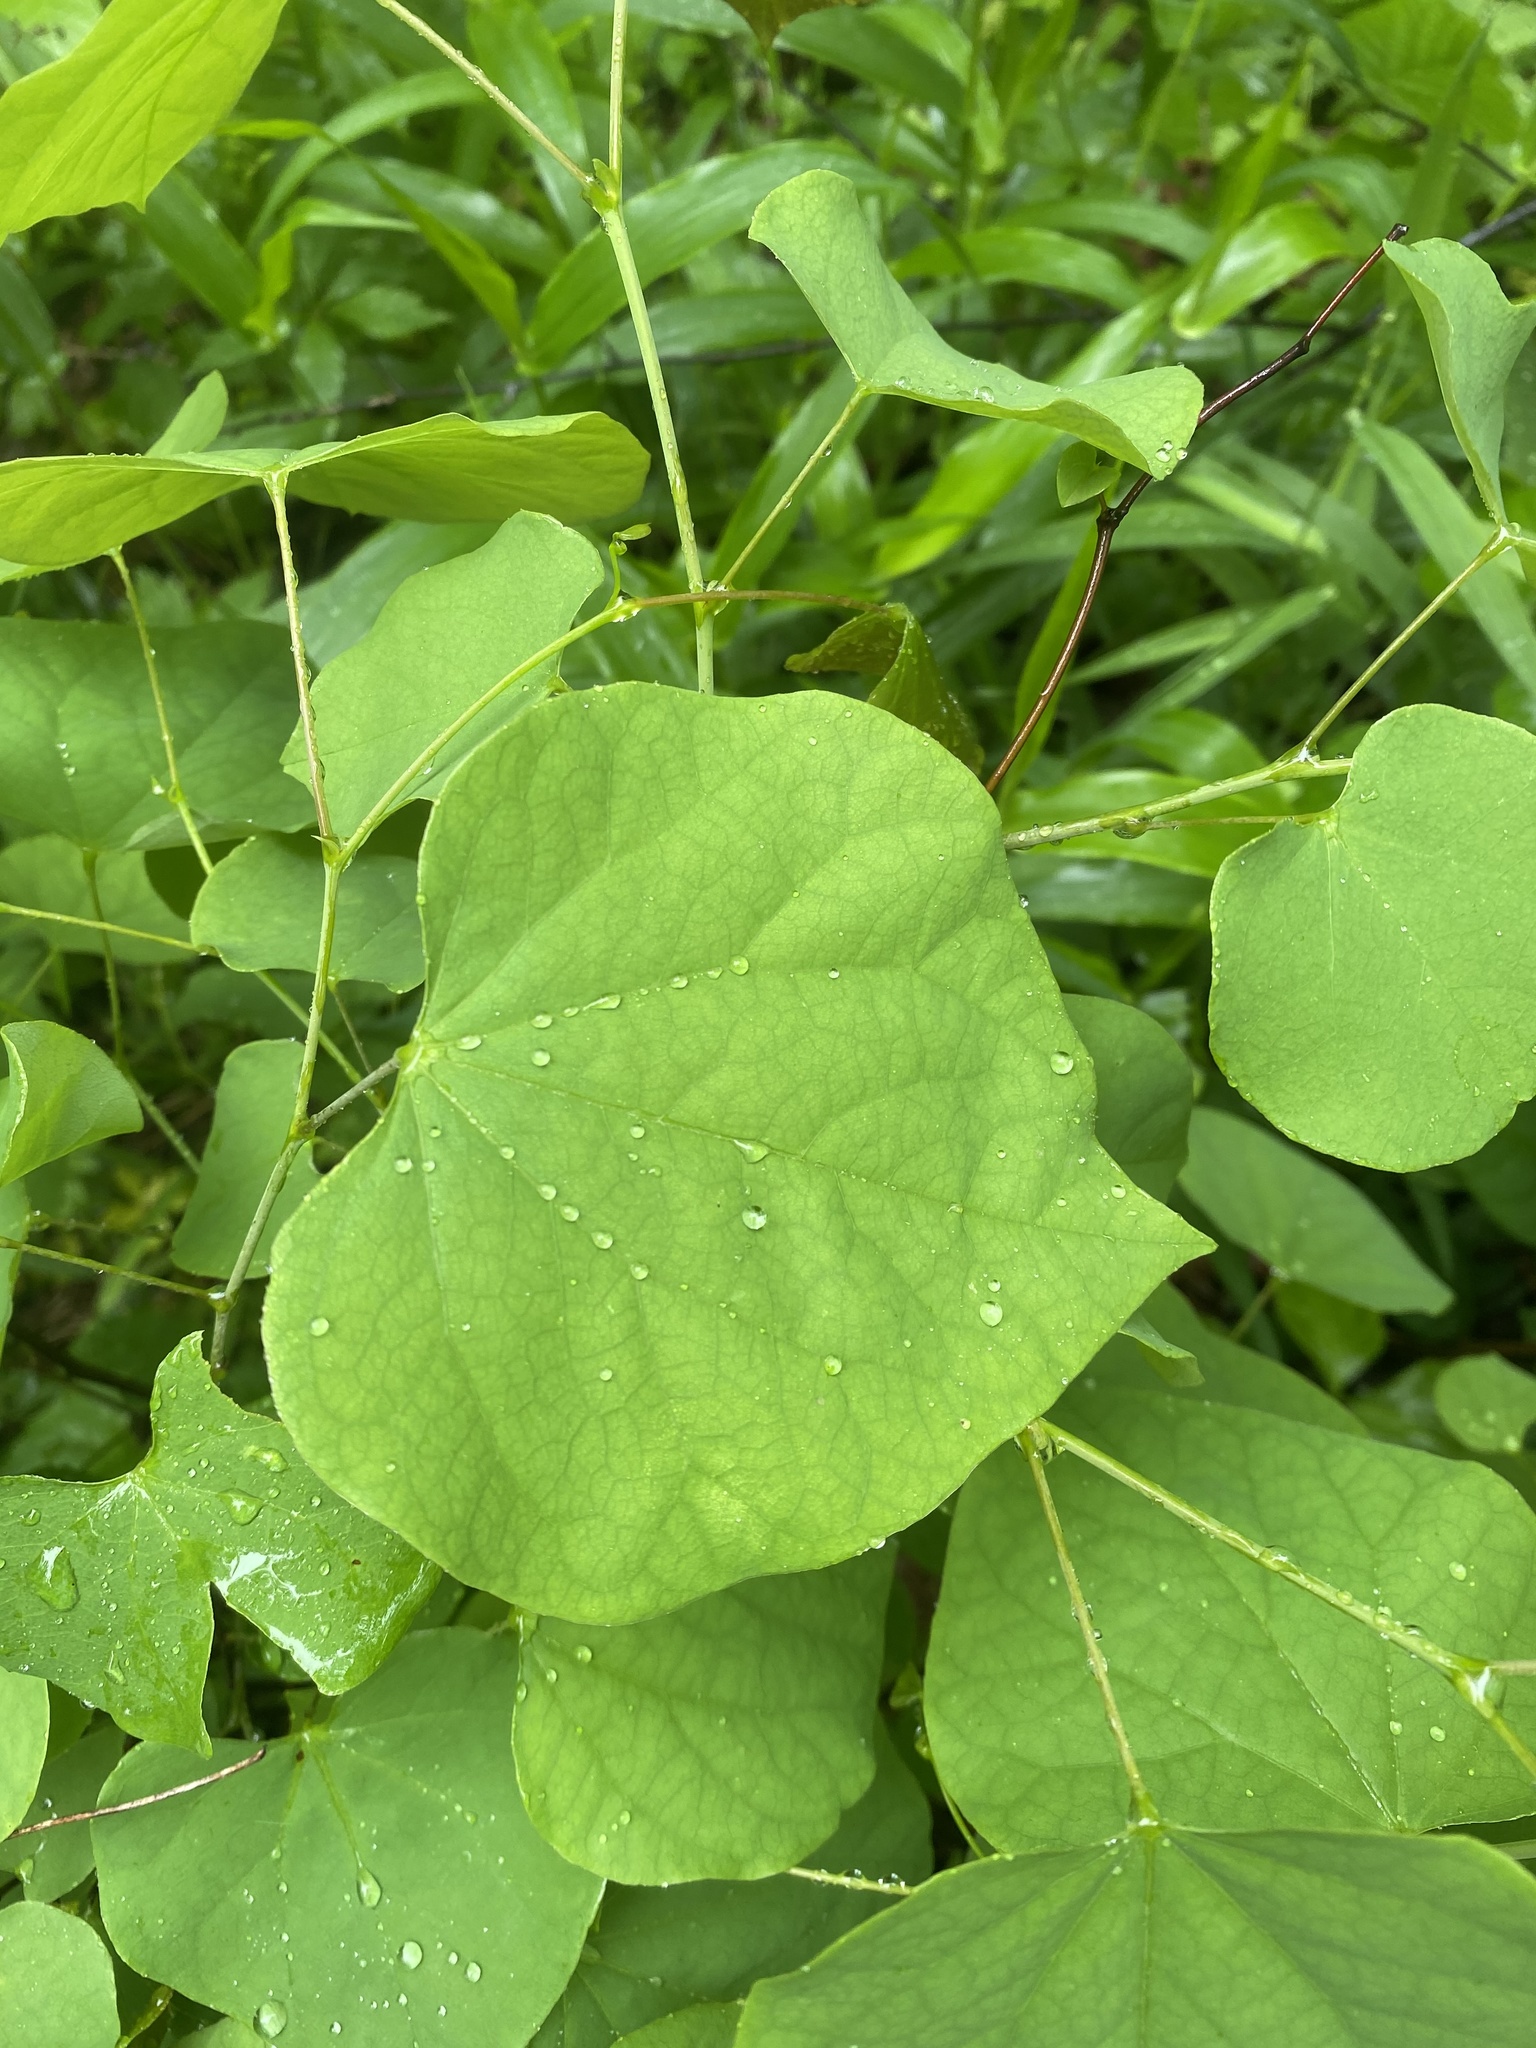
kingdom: Plantae
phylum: Tracheophyta
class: Magnoliopsida
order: Fabales
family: Fabaceae
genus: Cercis
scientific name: Cercis canadensis
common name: Eastern redbud
